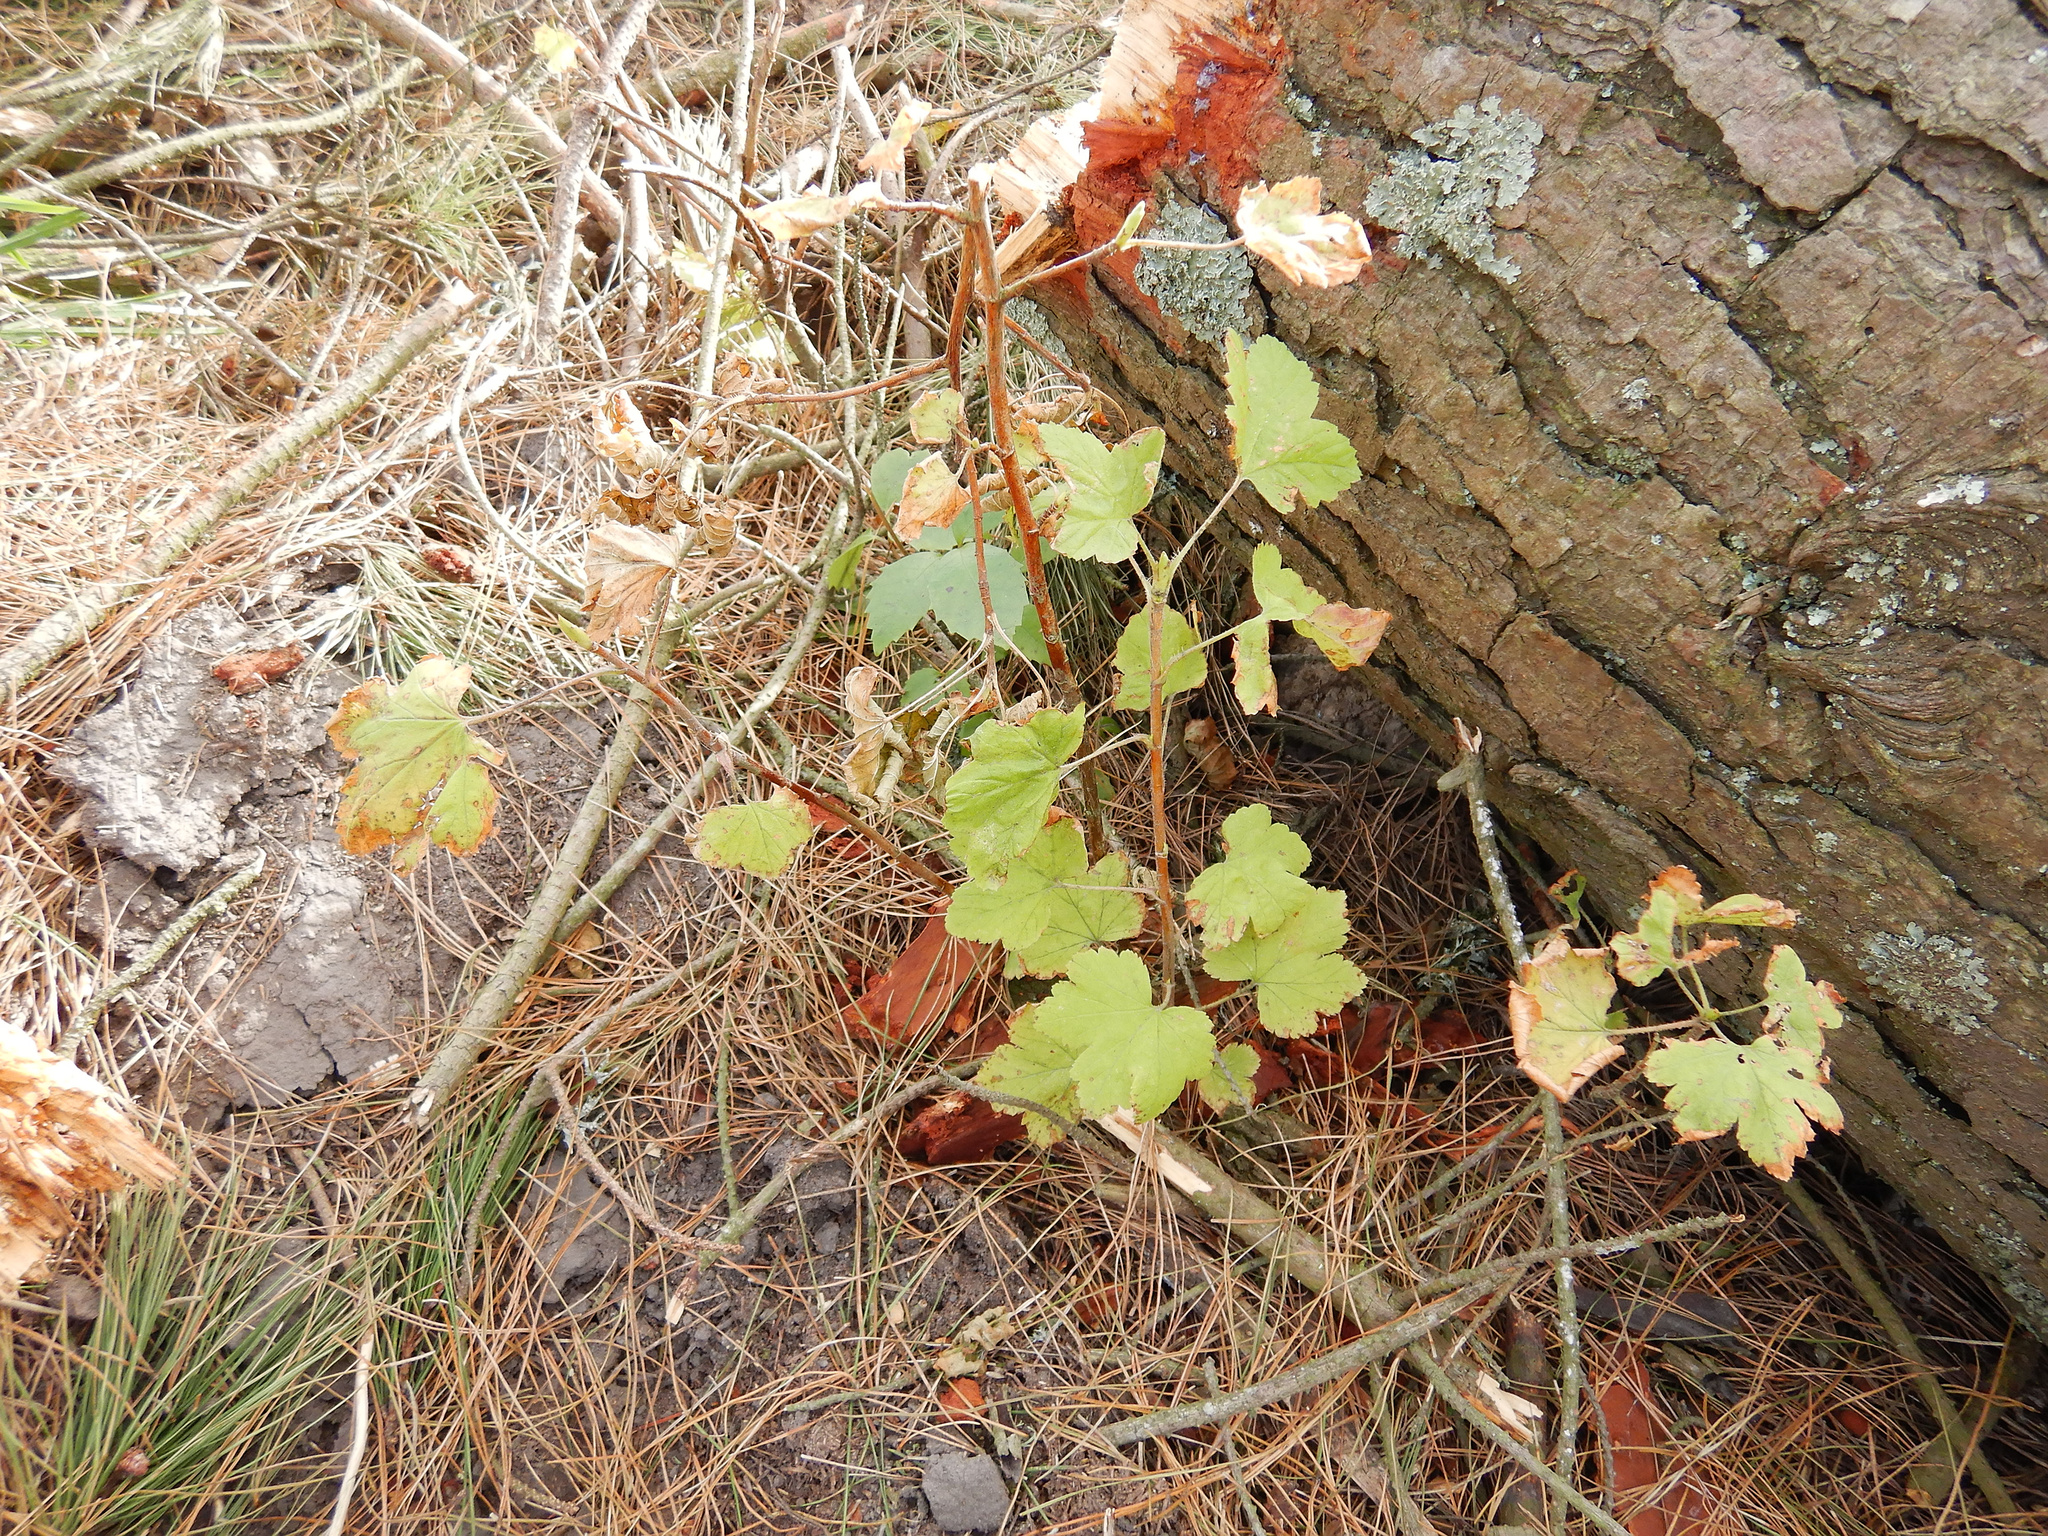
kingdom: Plantae
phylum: Tracheophyta
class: Magnoliopsida
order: Saxifragales
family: Grossulariaceae
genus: Ribes
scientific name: Ribes sanguineum
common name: Flowering currant
